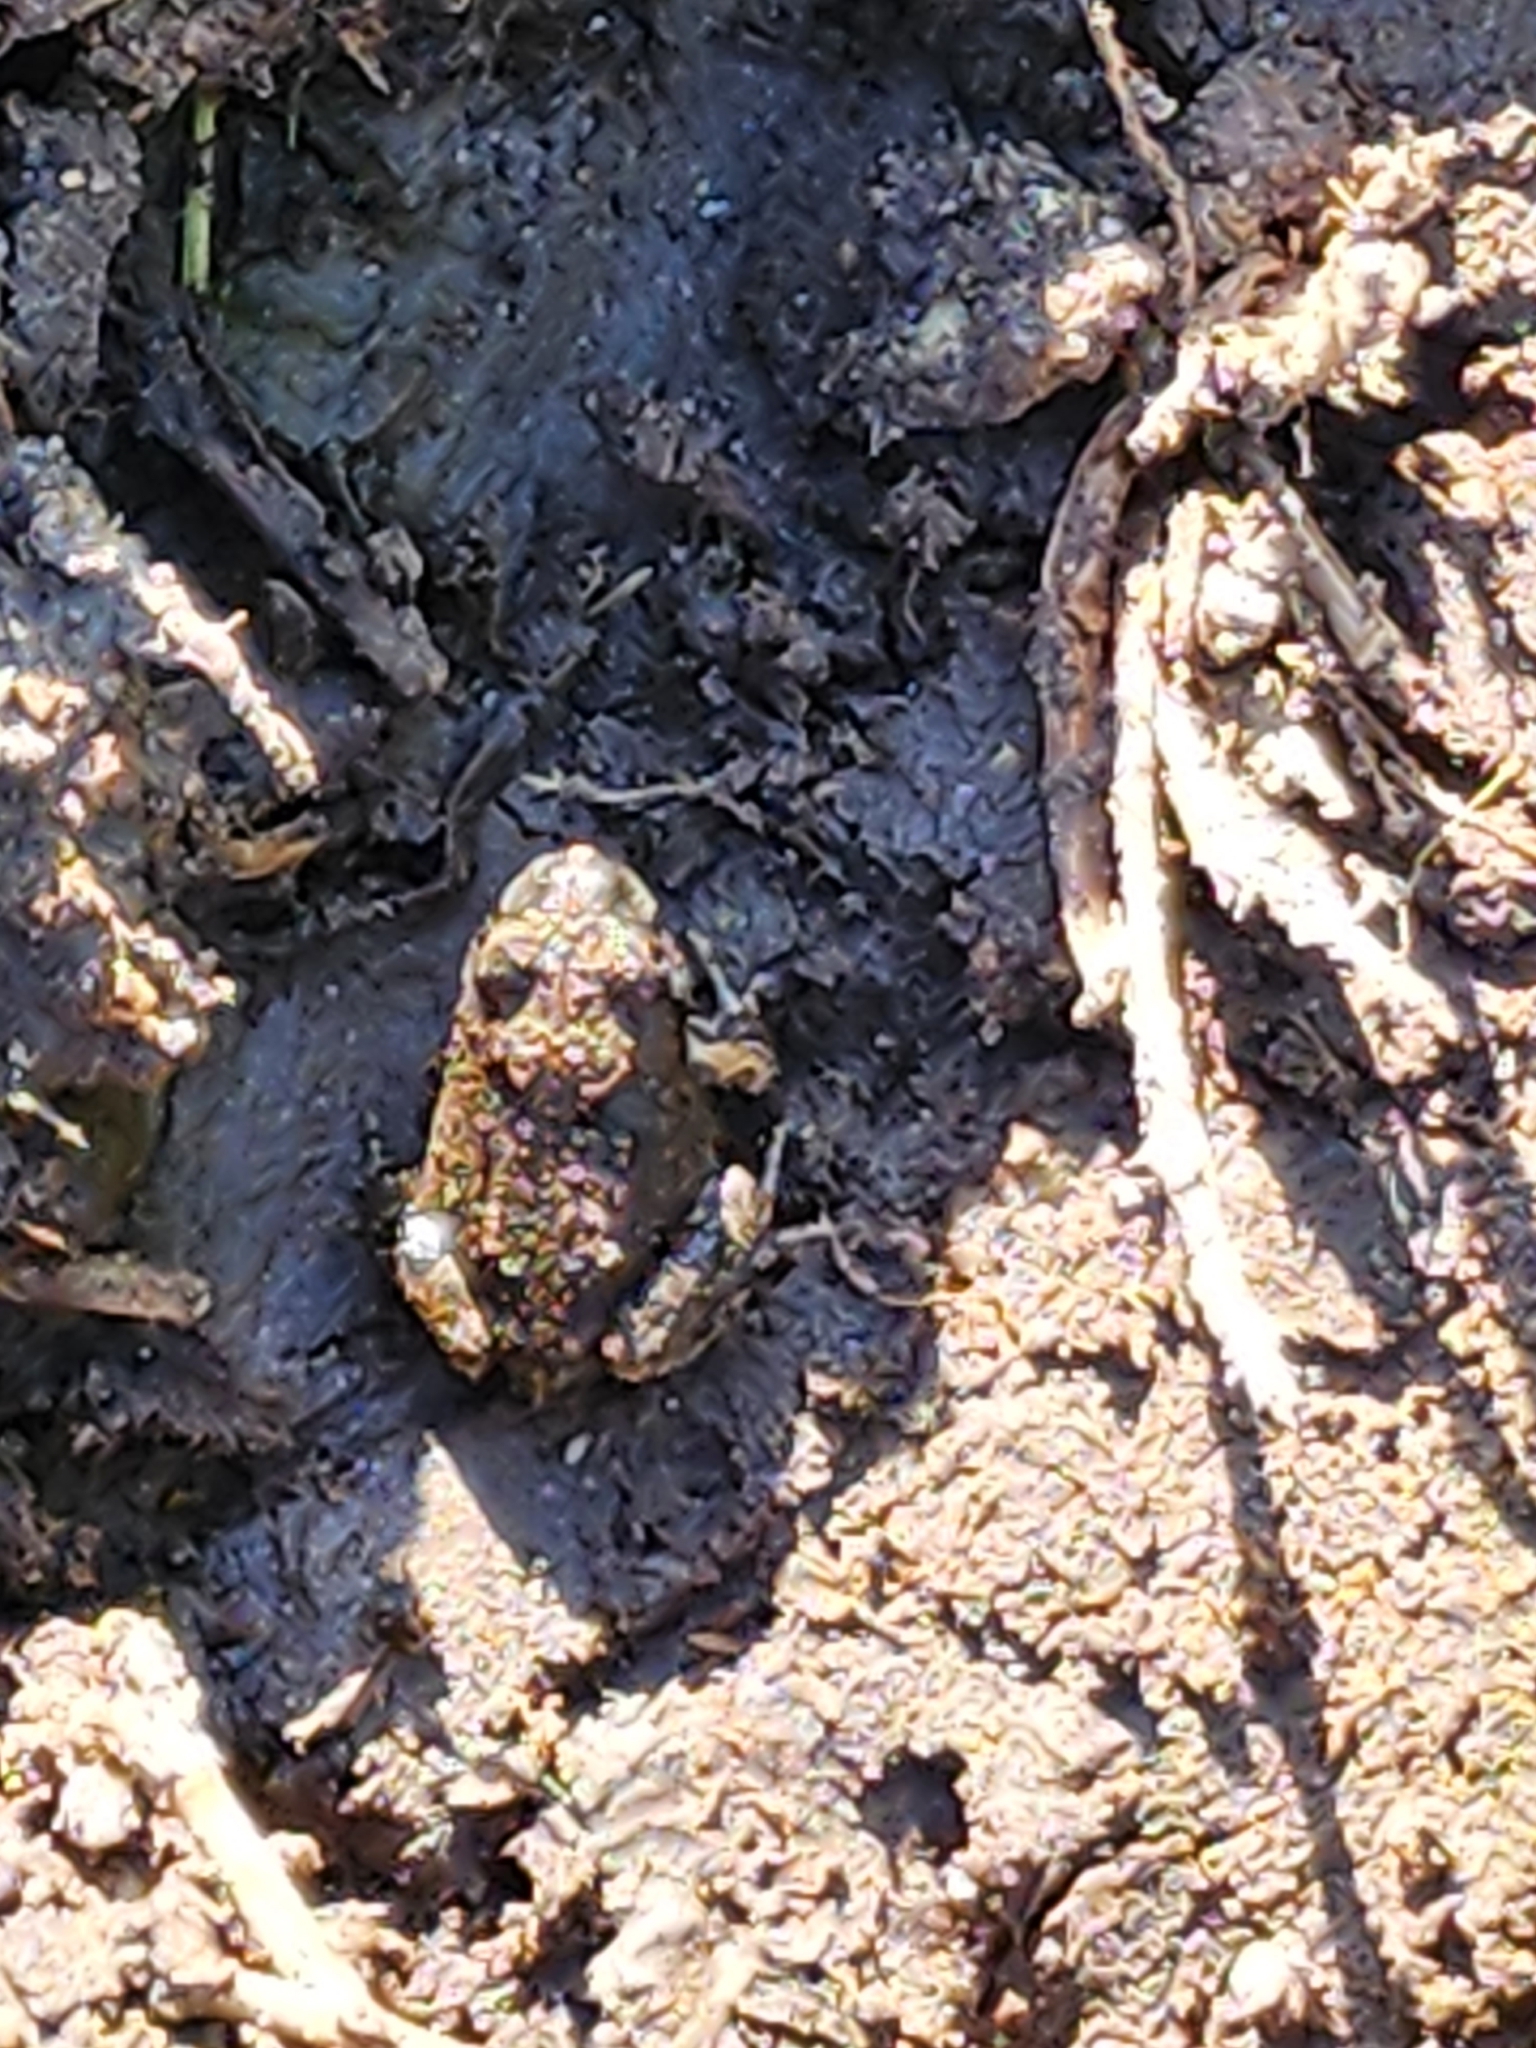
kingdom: Animalia
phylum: Chordata
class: Amphibia
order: Anura
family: Limnodynastidae
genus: Platyplectrum
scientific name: Platyplectrum ornatum
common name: Ornate burrowing frog
